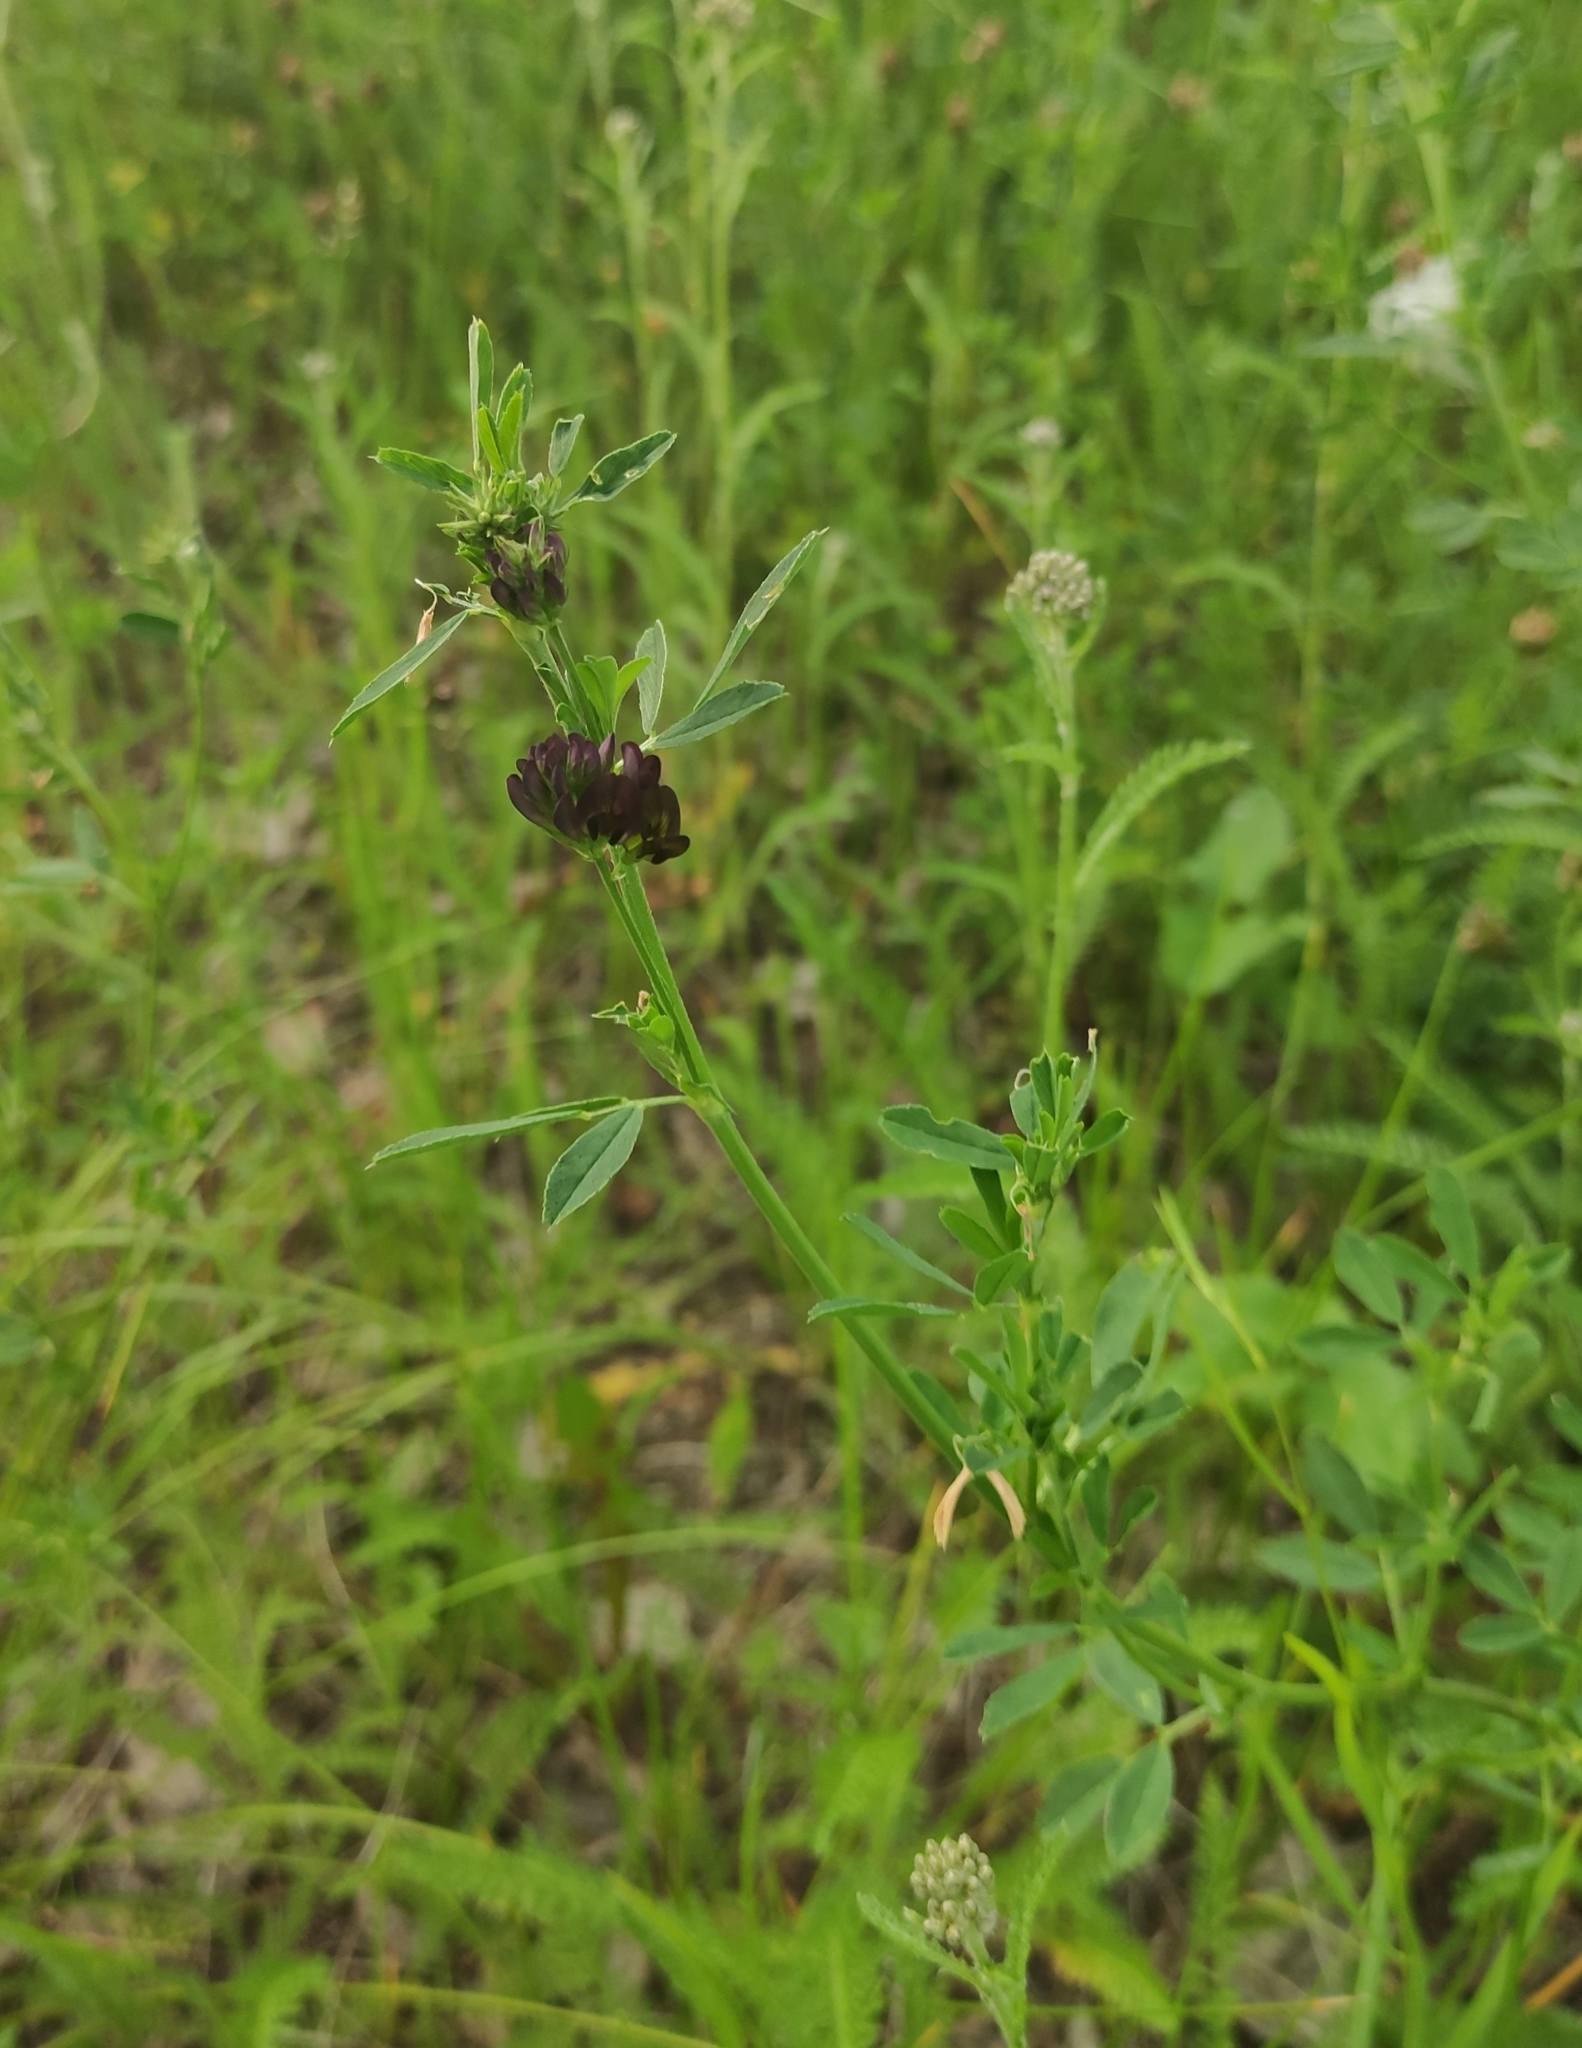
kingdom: Plantae
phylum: Tracheophyta
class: Magnoliopsida
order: Fabales
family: Fabaceae
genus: Medicago
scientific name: Medicago varia
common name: Sand lucerne
